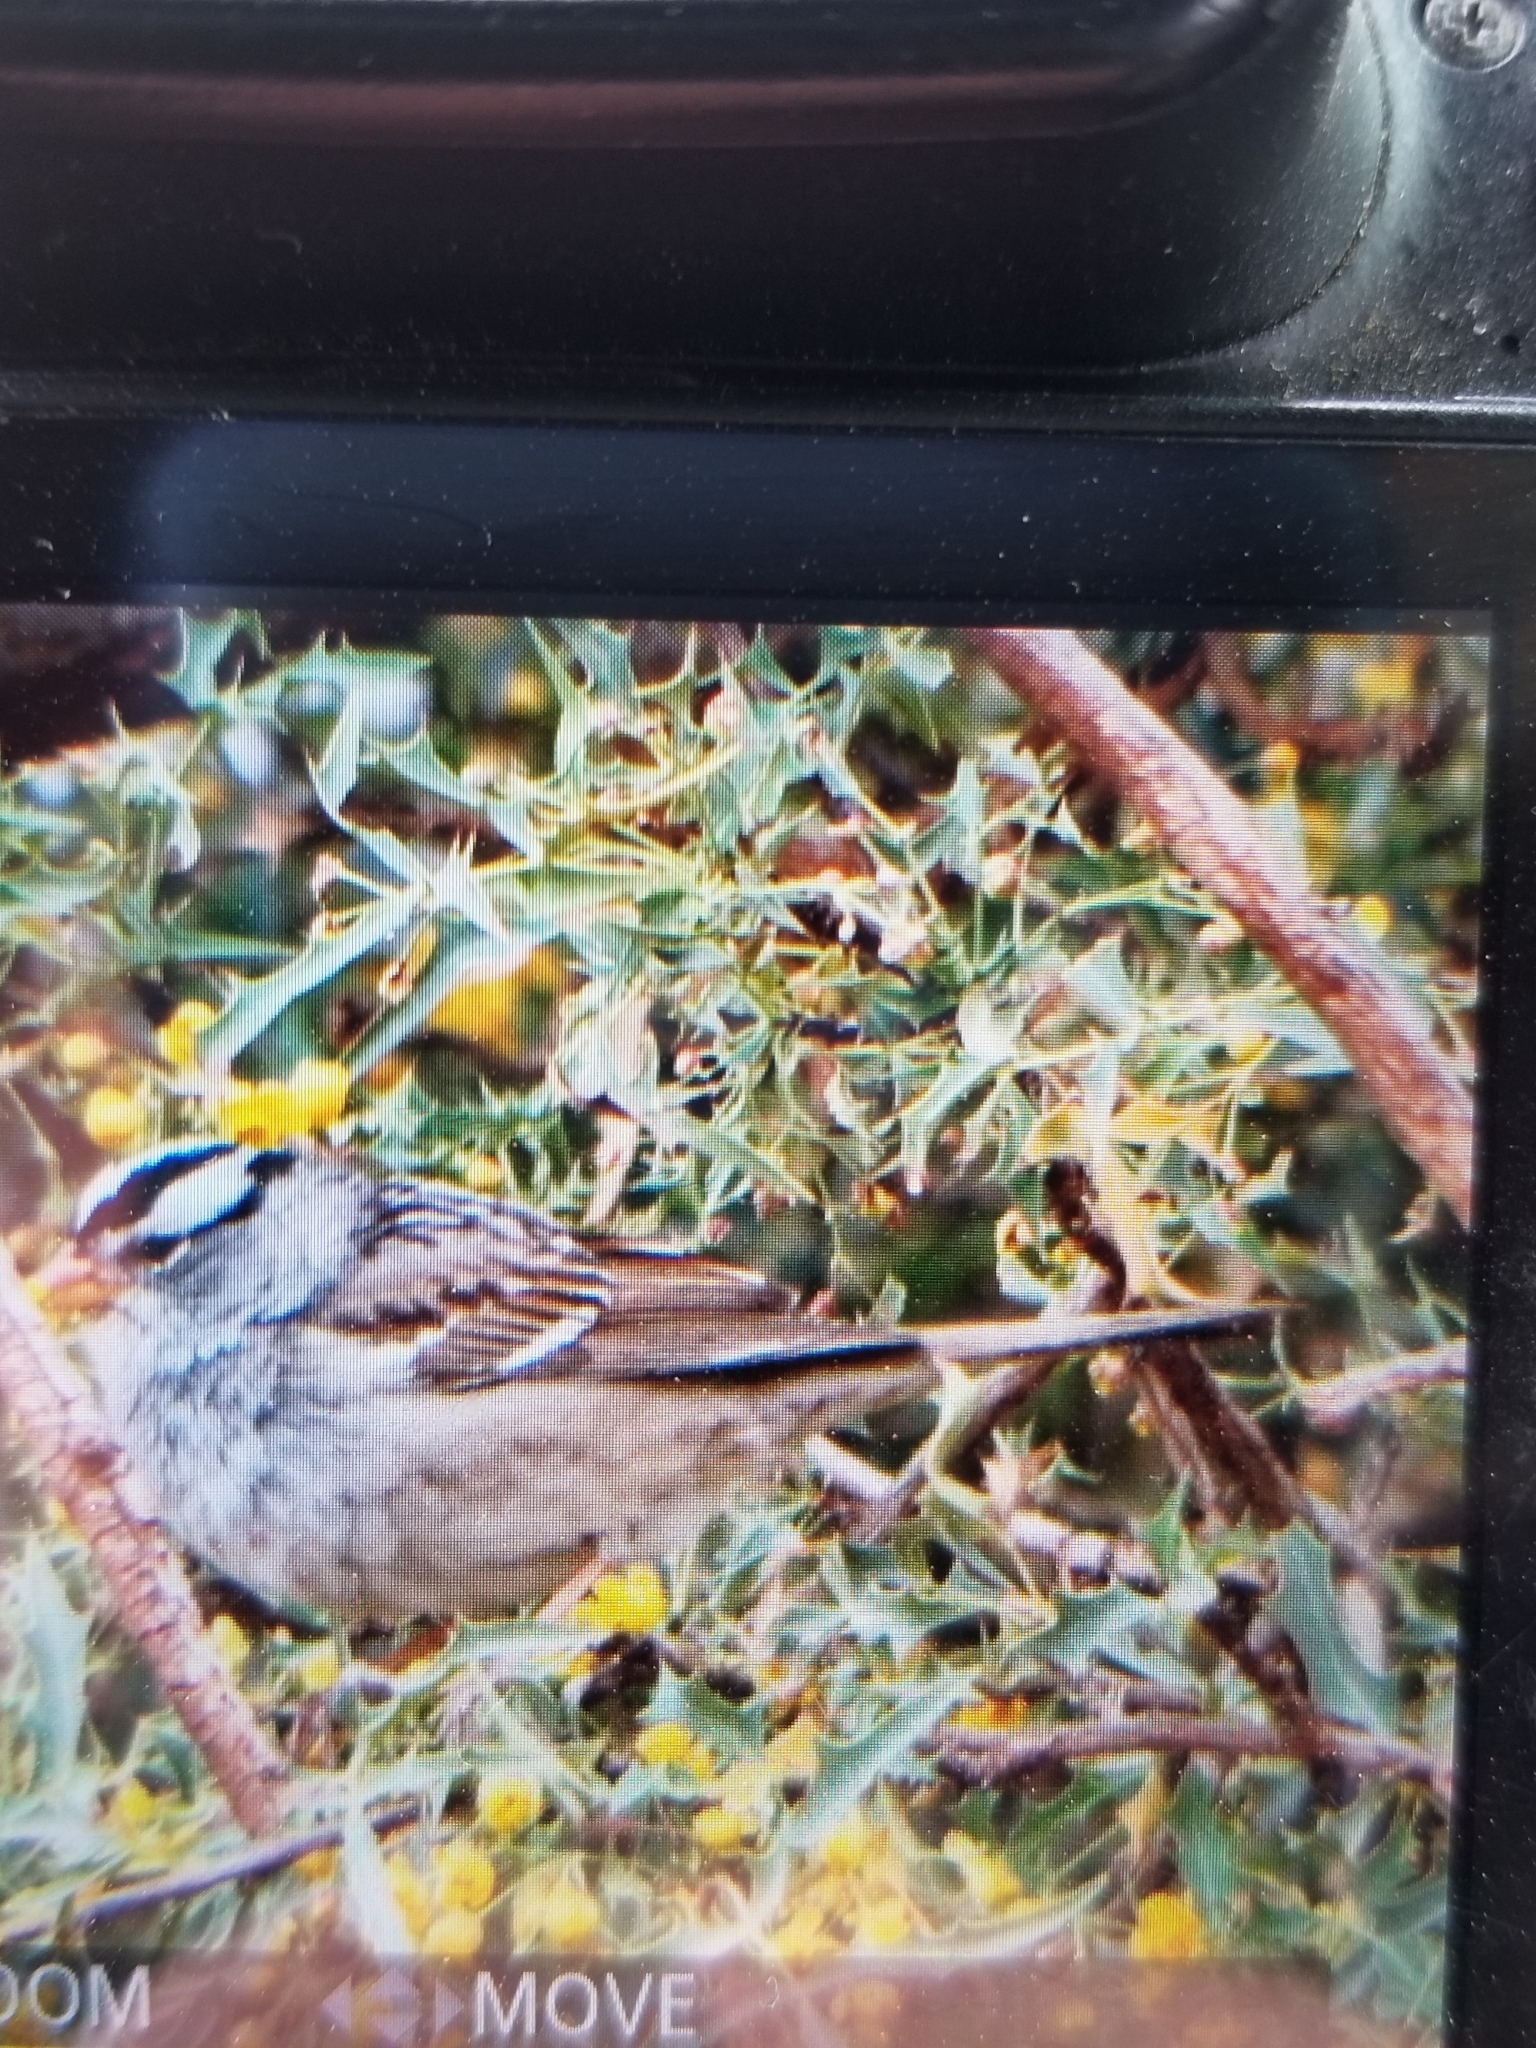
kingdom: Animalia
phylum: Chordata
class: Aves
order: Passeriformes
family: Passerellidae
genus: Zonotrichia
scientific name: Zonotrichia leucophrys
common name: White-crowned sparrow
